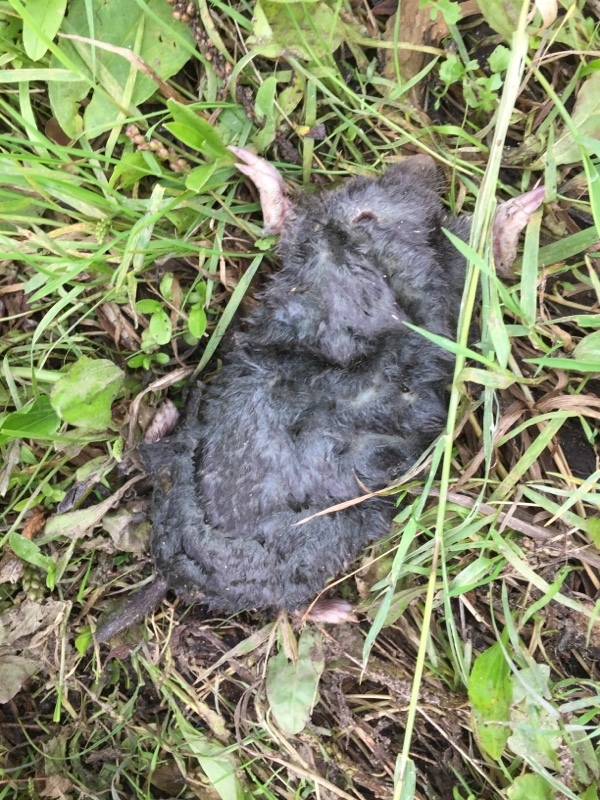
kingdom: Animalia
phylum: Chordata
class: Mammalia
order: Soricomorpha
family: Talpidae
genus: Talpa
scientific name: Talpa europaea
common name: European mole
